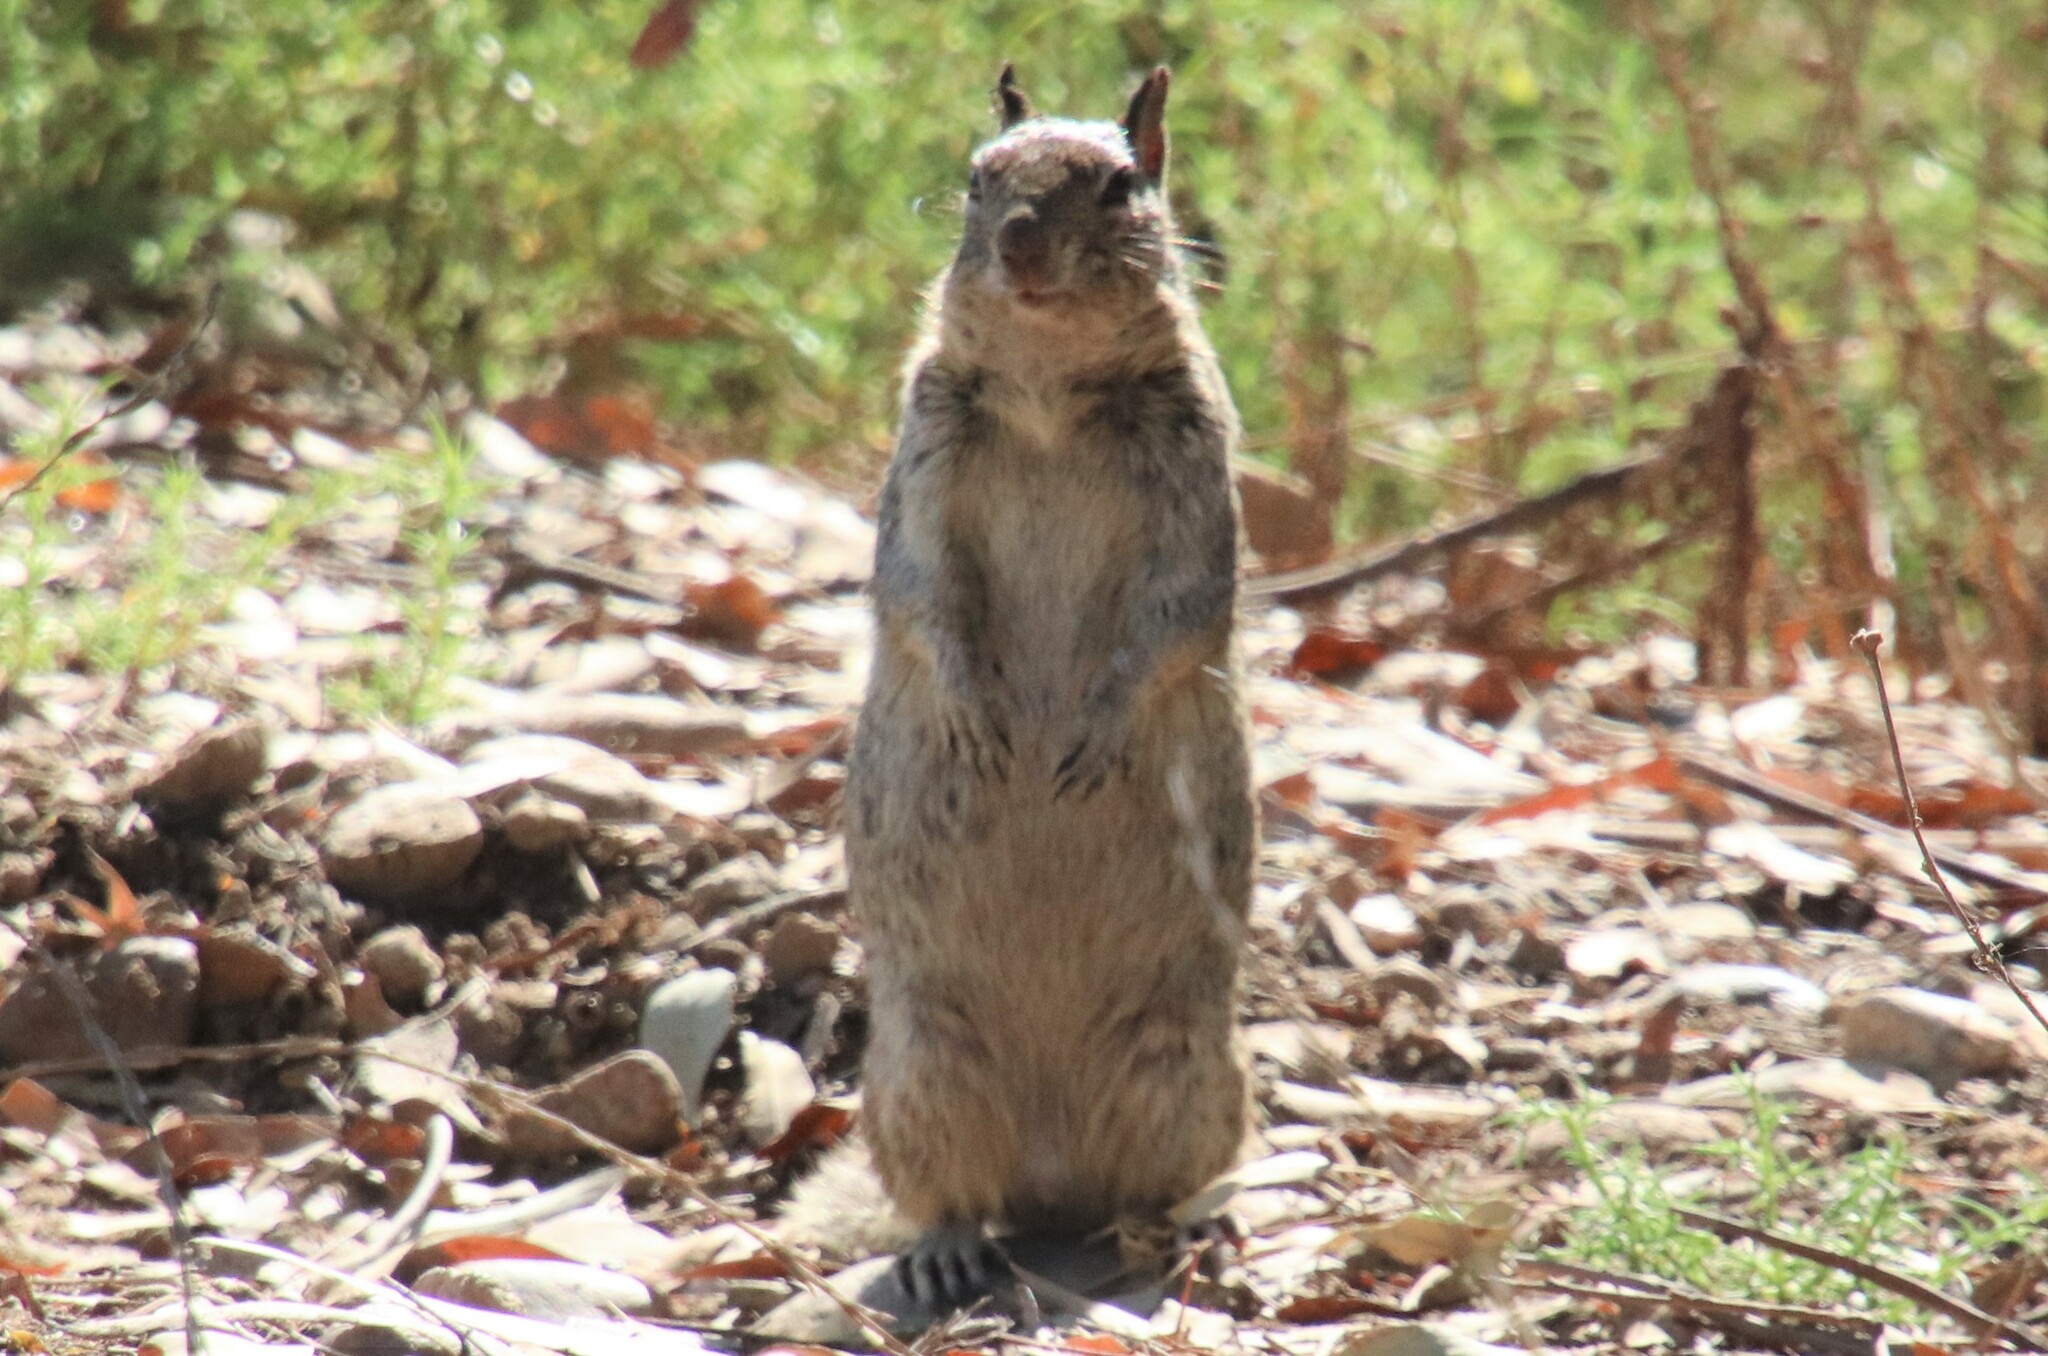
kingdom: Animalia
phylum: Chordata
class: Mammalia
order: Rodentia
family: Sciuridae
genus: Otospermophilus
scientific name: Otospermophilus beecheyi
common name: California ground squirrel
